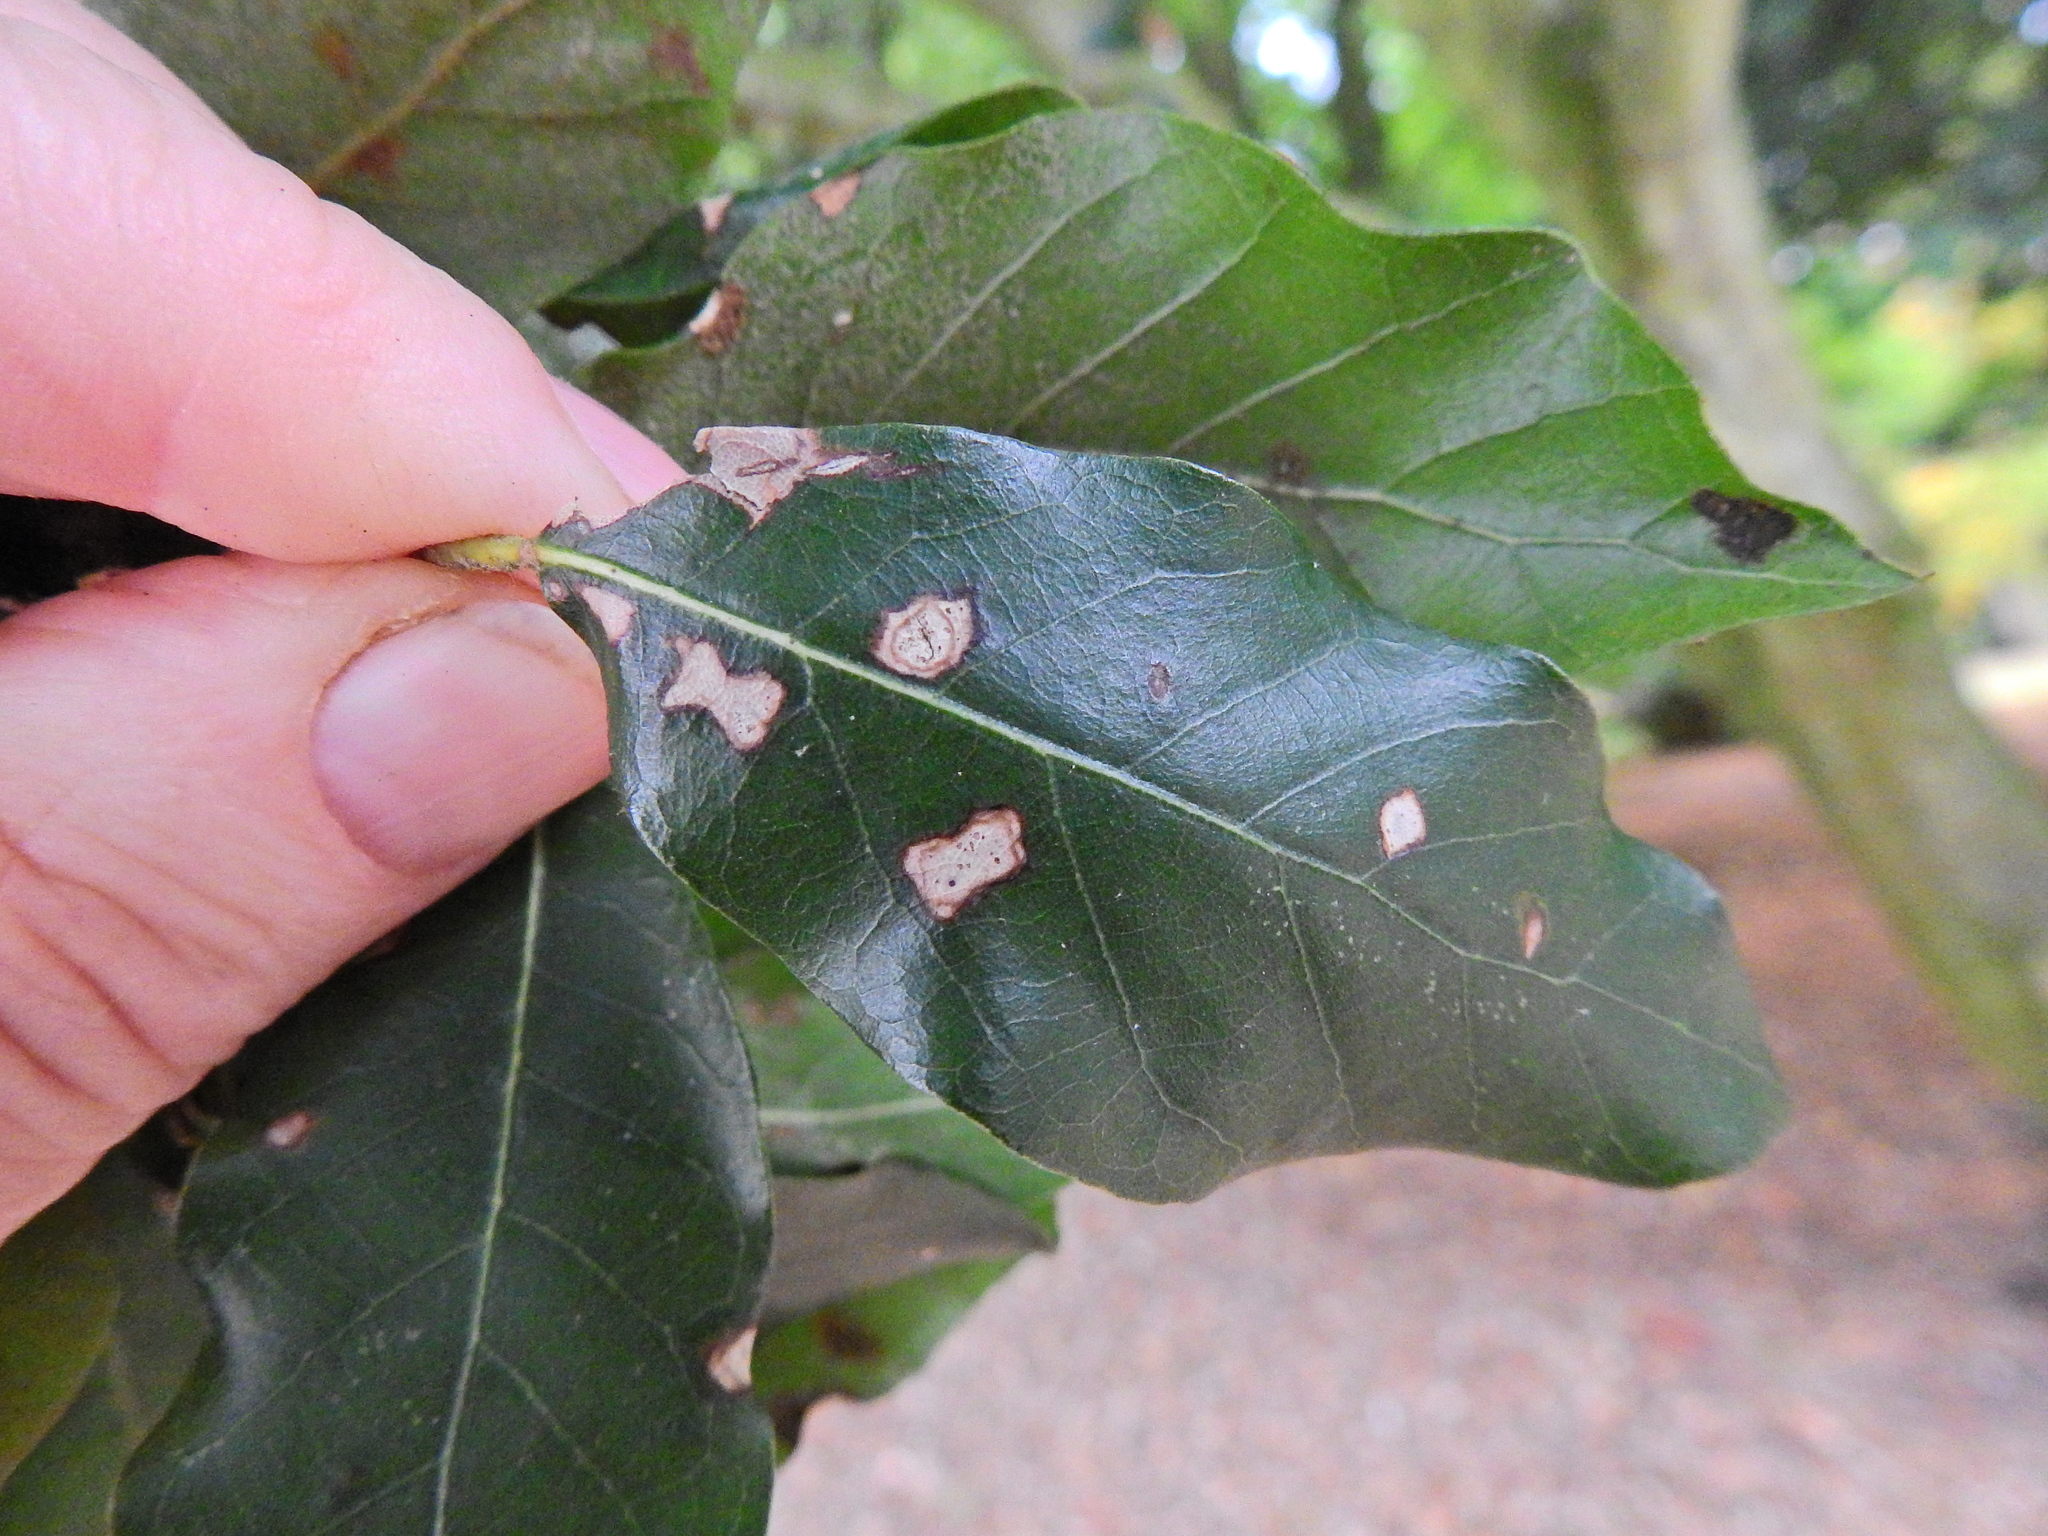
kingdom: Animalia
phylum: Arthropoda
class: Arachnida
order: Trombidiformes
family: Eriophyidae
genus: Aceria
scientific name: Aceria ilicis
